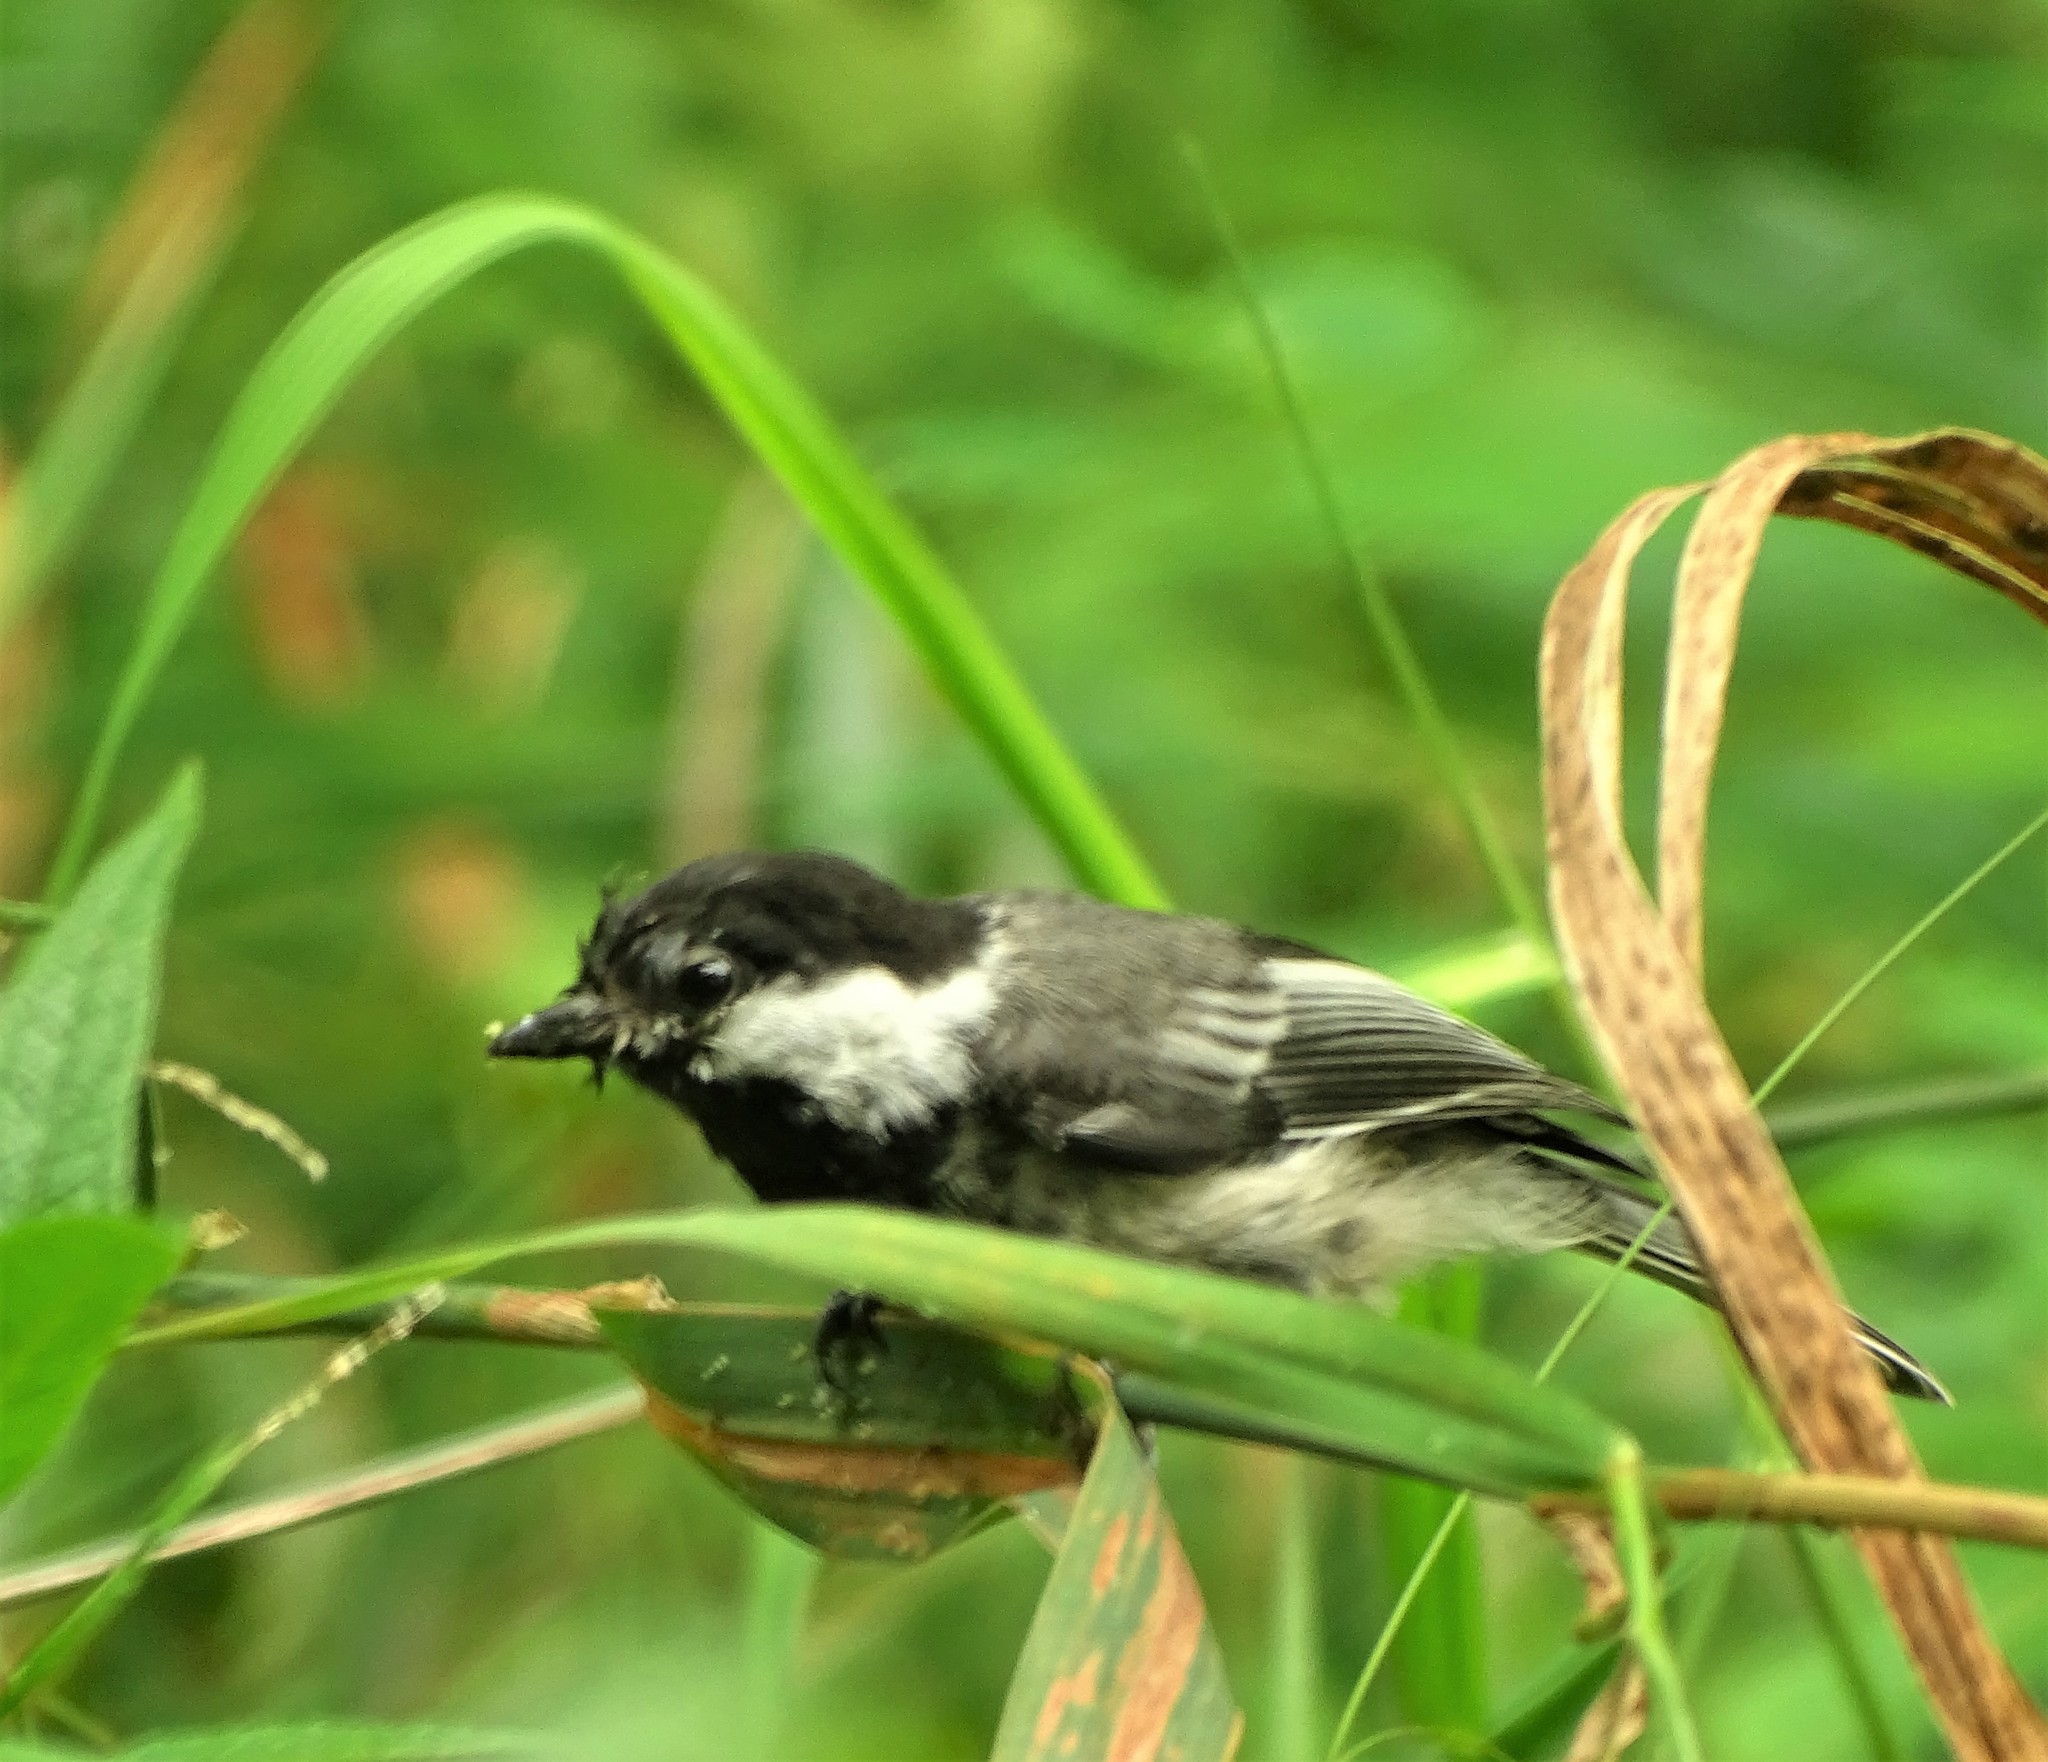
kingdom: Animalia
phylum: Chordata
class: Aves
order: Passeriformes
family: Paridae
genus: Poecile
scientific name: Poecile atricapillus
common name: Black-capped chickadee
